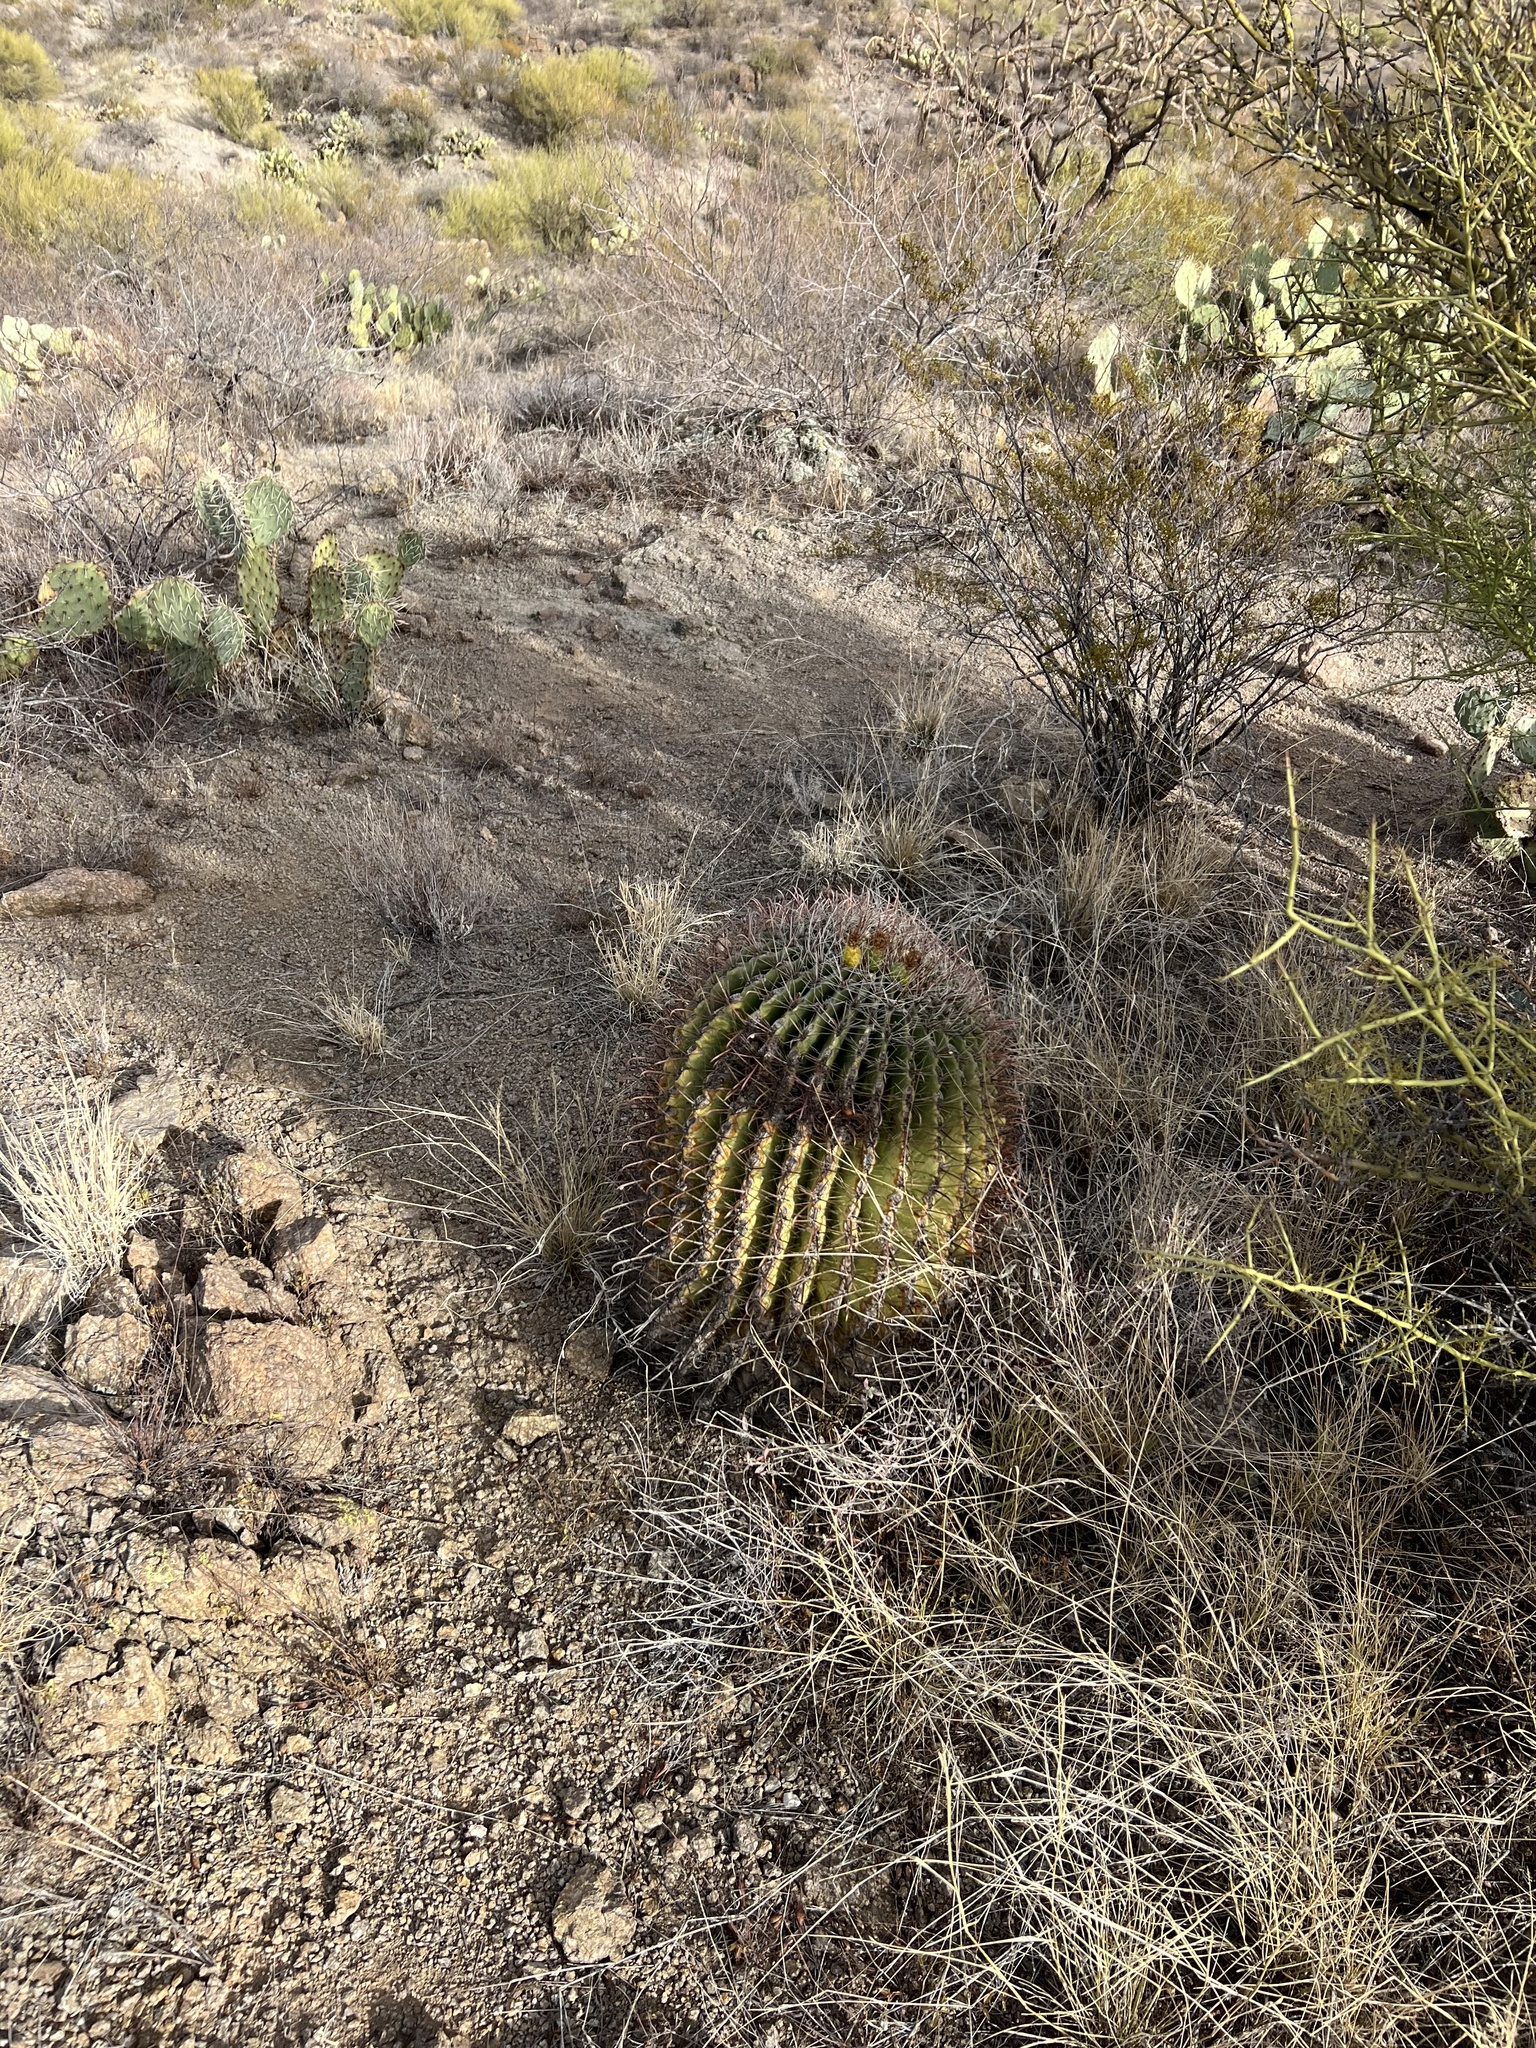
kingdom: Plantae
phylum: Tracheophyta
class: Magnoliopsida
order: Caryophyllales
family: Cactaceae
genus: Ferocactus
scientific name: Ferocactus wislizeni
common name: Candy barrel cactus
